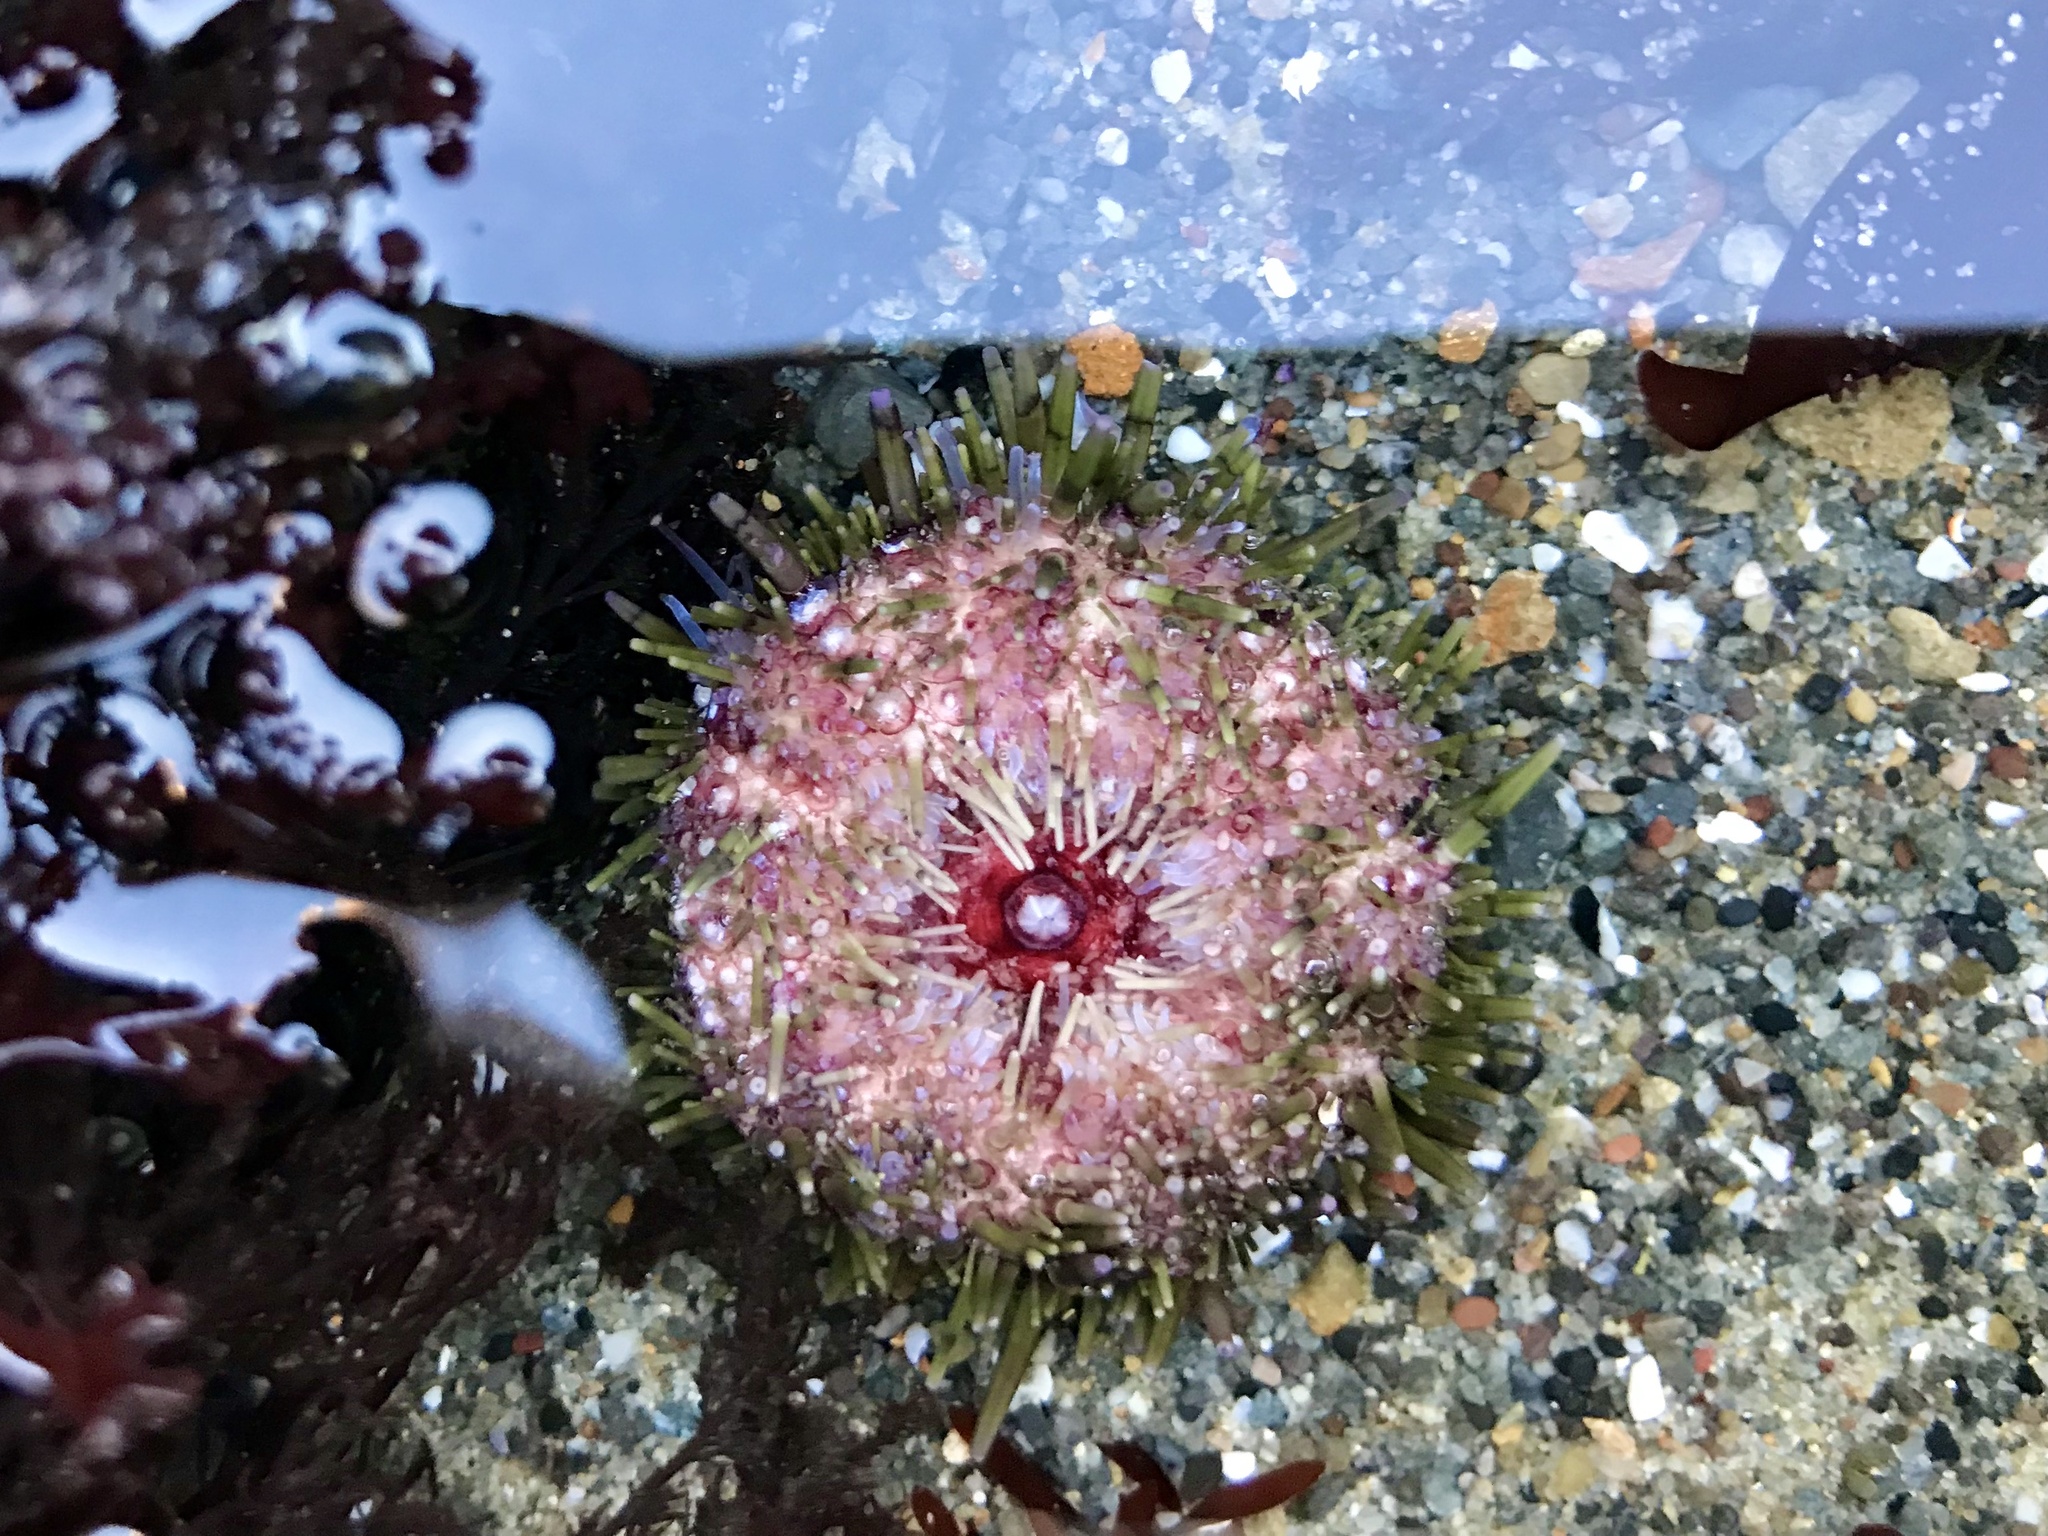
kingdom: Animalia
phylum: Echinodermata
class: Echinoidea
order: Camarodonta
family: Strongylocentrotidae
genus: Strongylocentrotus
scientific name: Strongylocentrotus purpuratus
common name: Purple sea urchin
